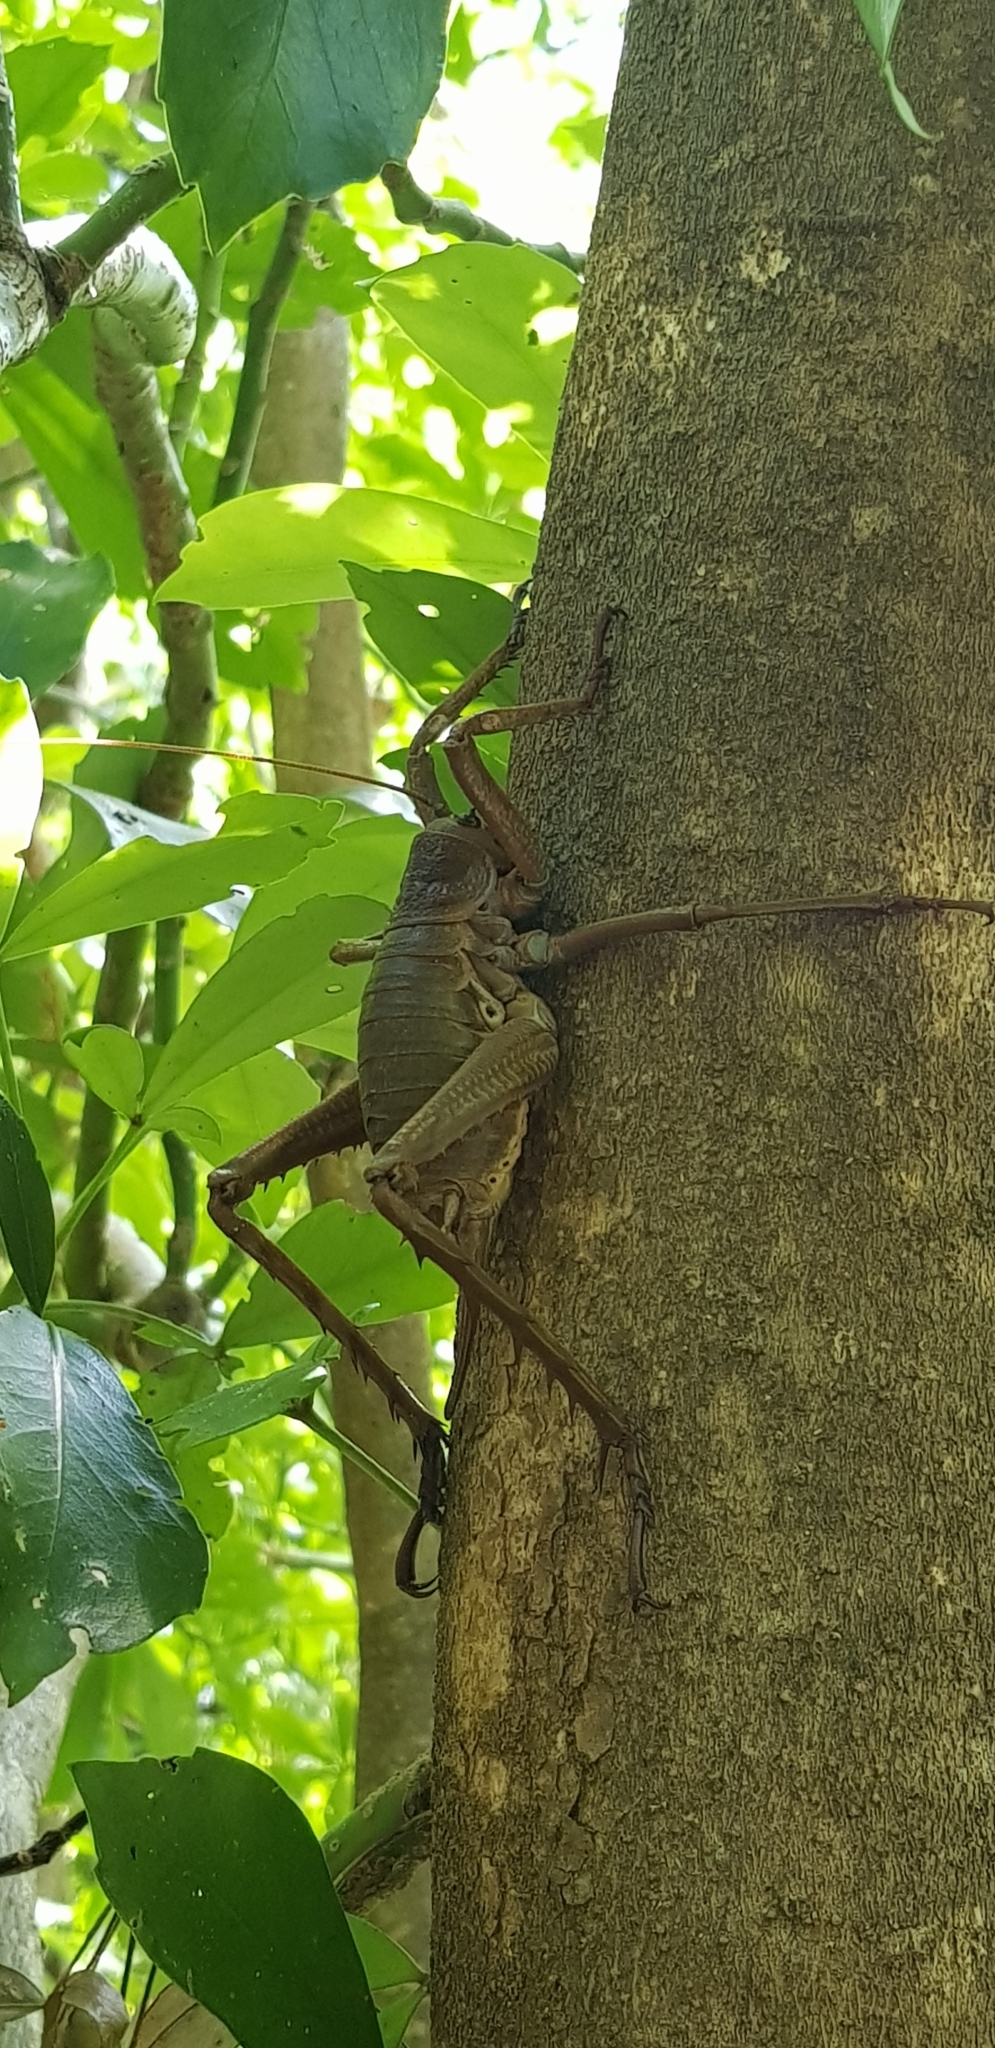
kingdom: Animalia
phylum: Arthropoda
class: Insecta
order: Orthoptera
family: Anostostomatidae
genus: Deinacrida
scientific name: Deinacrida heteracantha
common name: Wetapunga
